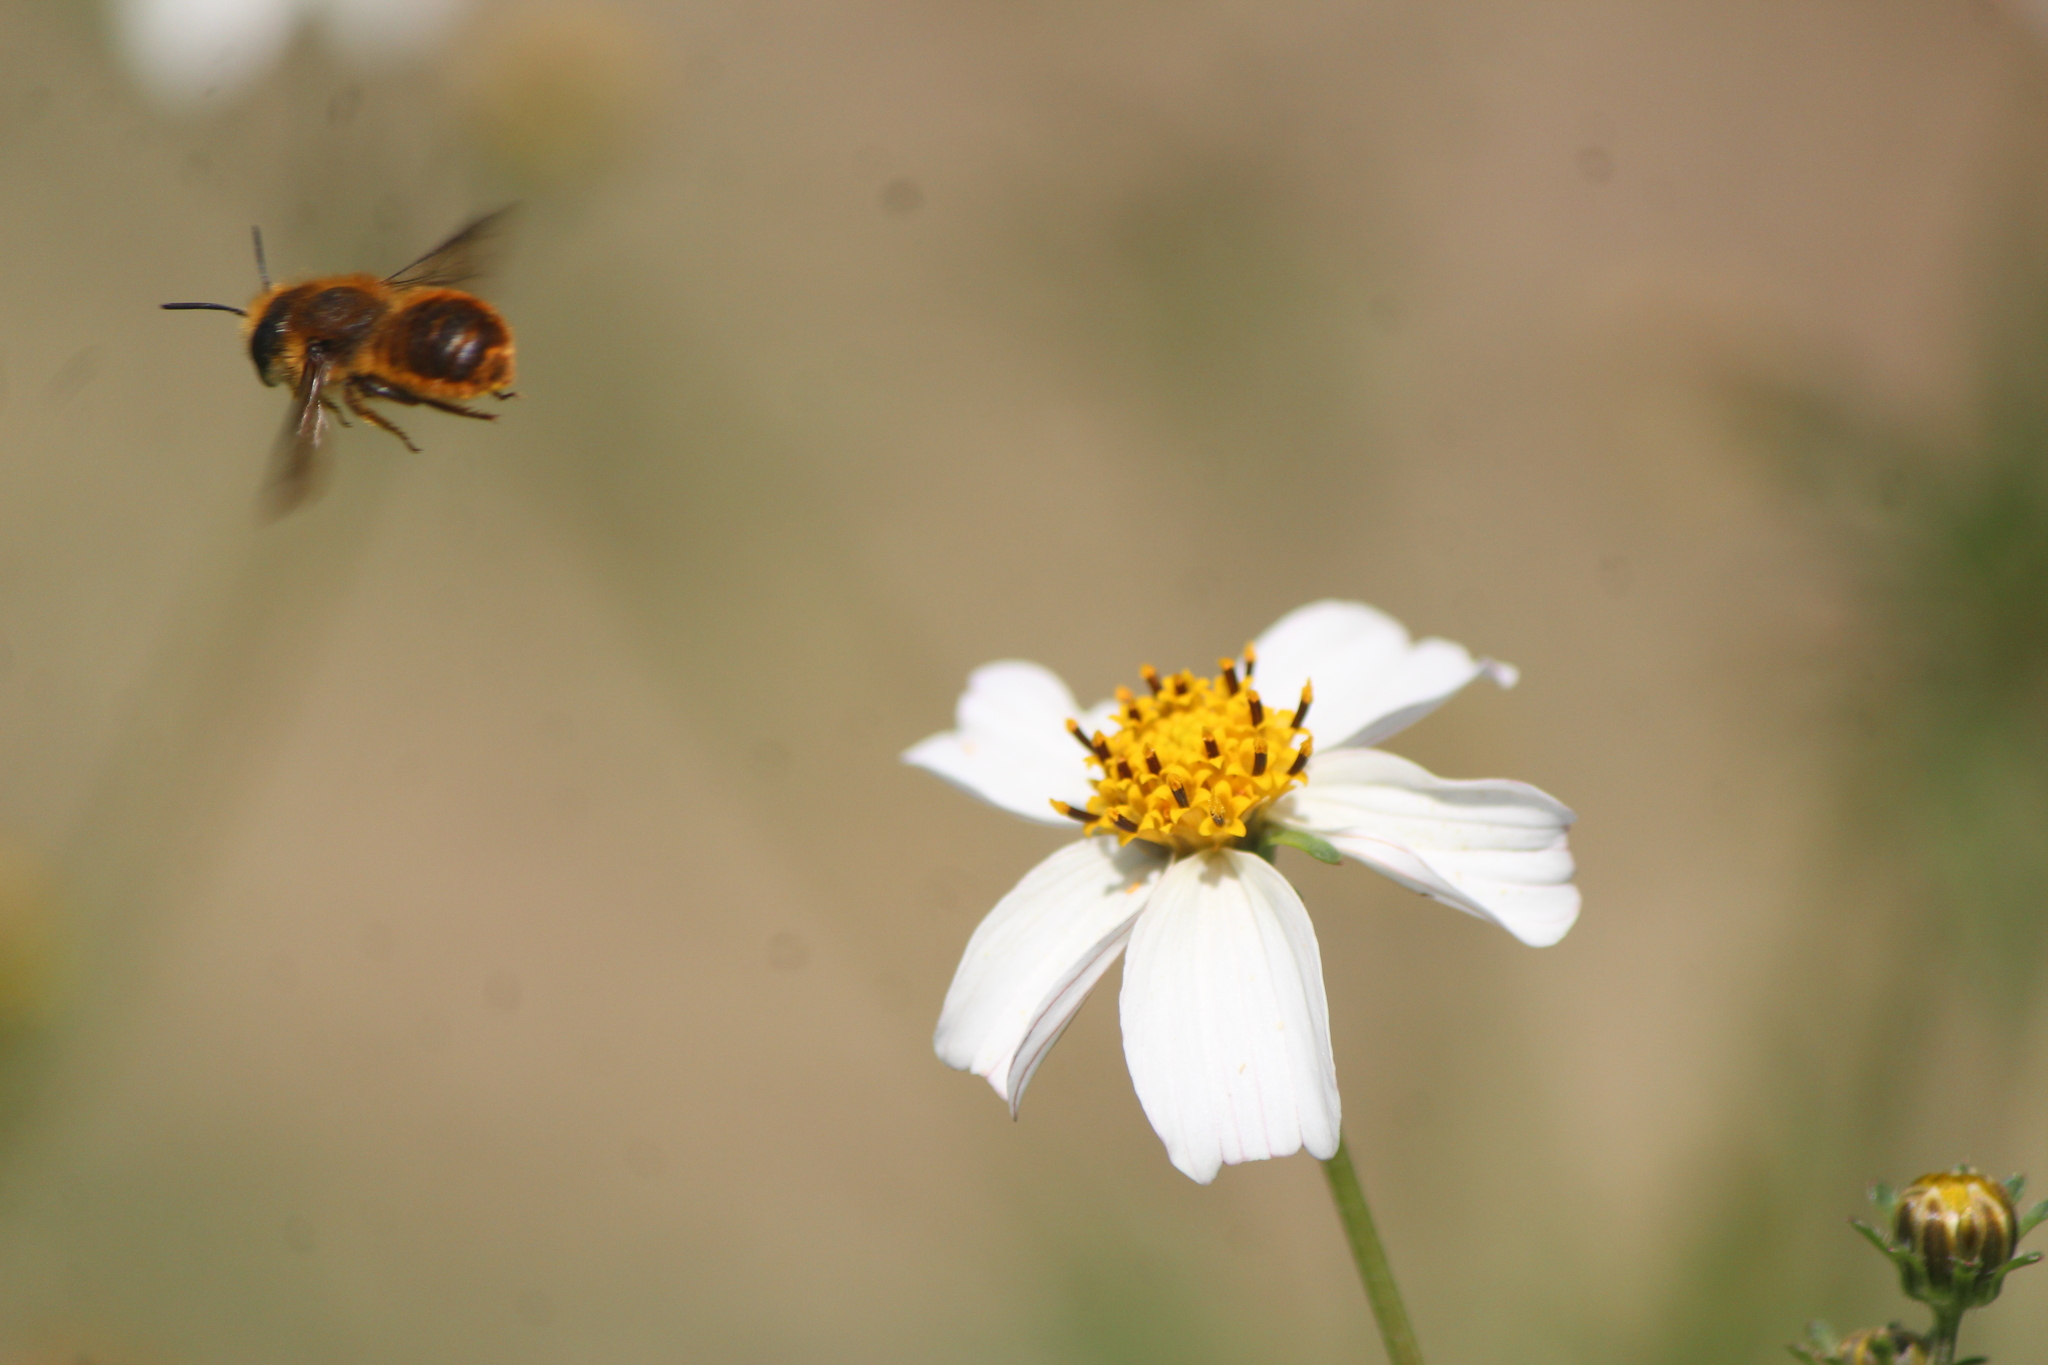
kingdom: Animalia
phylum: Arthropoda
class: Insecta
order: Hymenoptera
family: Megachilidae
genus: Osmia
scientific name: Osmia azteca
